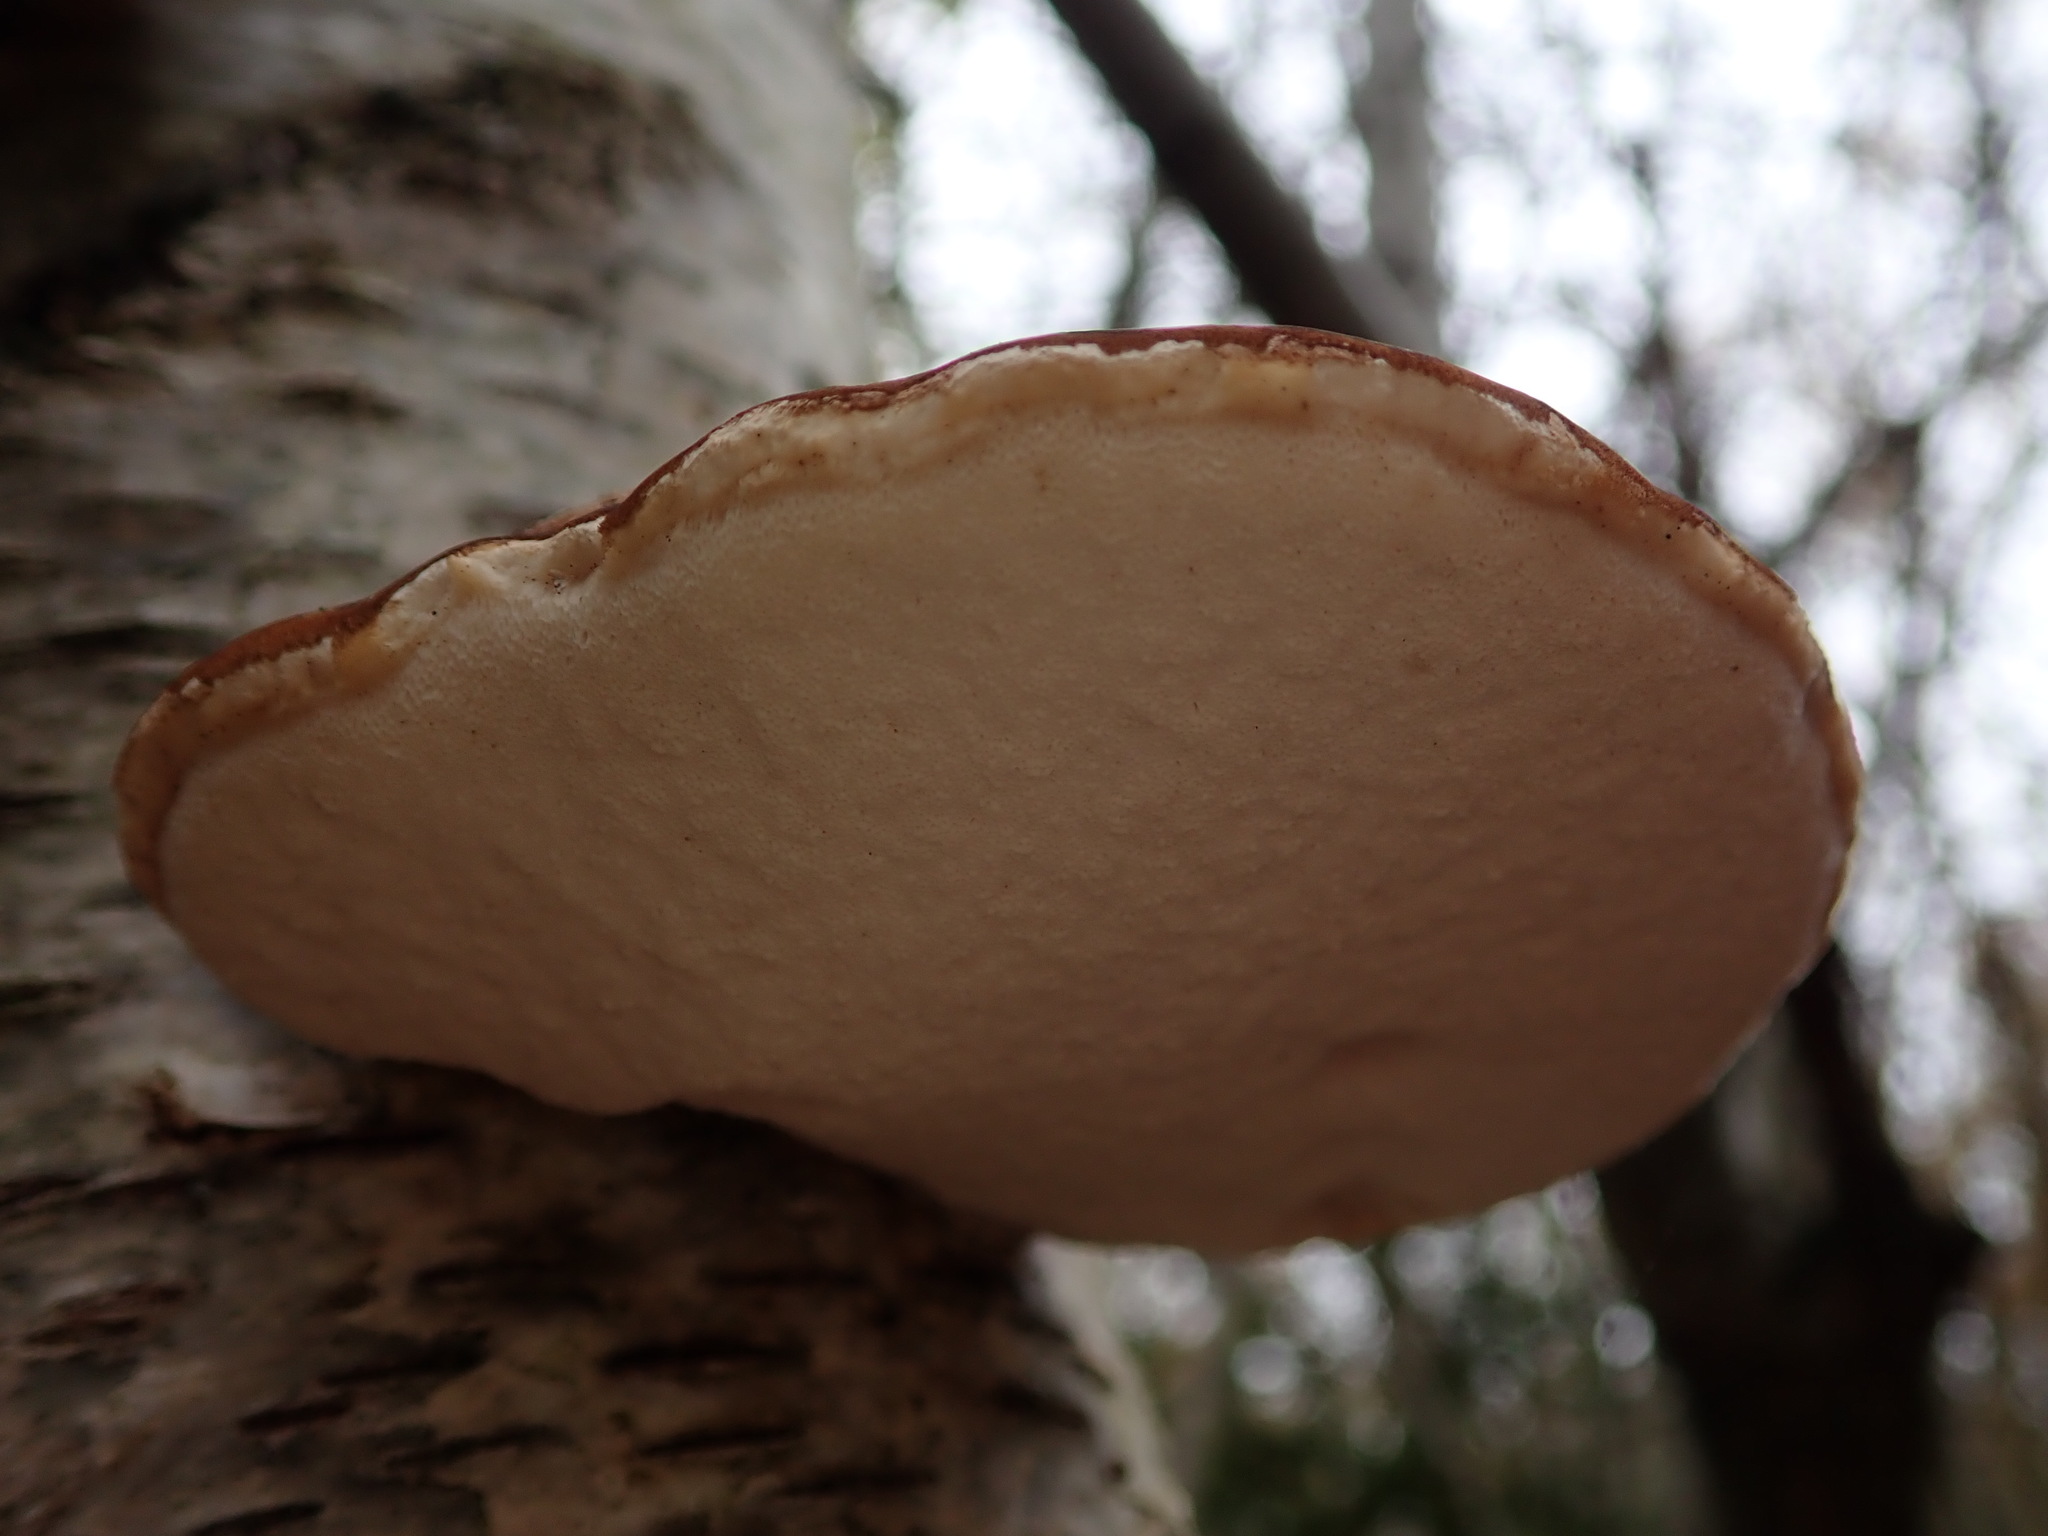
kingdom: Fungi
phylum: Basidiomycota
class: Agaricomycetes
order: Polyporales
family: Fomitopsidaceae
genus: Fomitopsis
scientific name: Fomitopsis betulina
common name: Birch polypore
